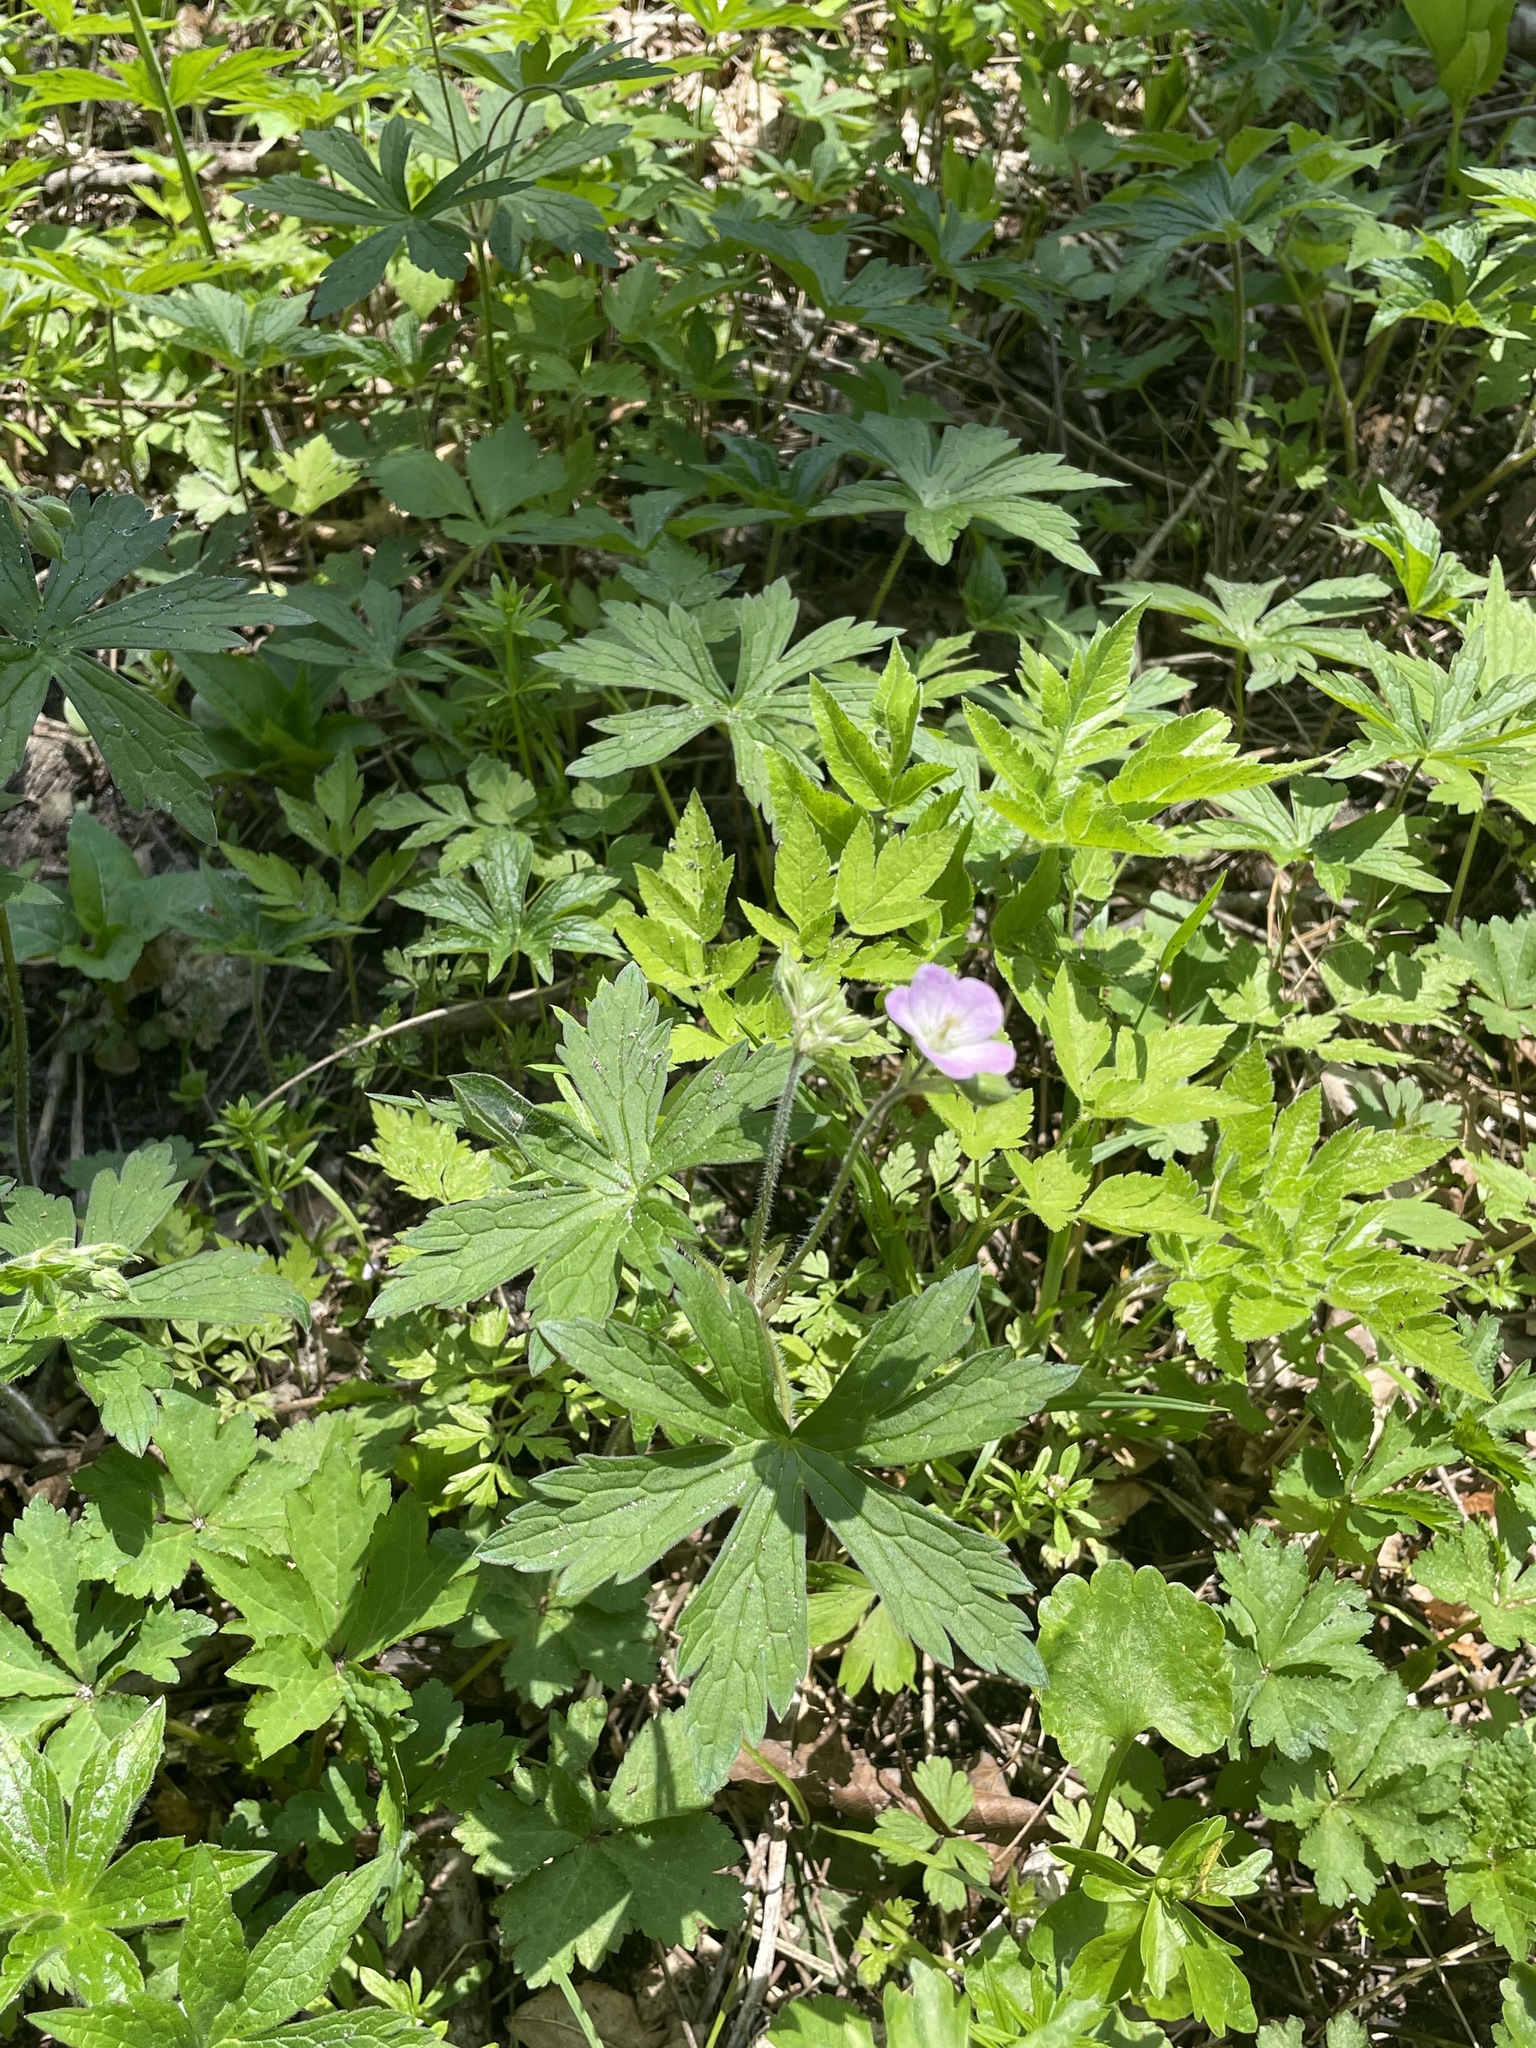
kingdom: Plantae
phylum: Tracheophyta
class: Magnoliopsida
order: Geraniales
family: Geraniaceae
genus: Geranium
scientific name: Geranium maculatum
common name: Spotted geranium
